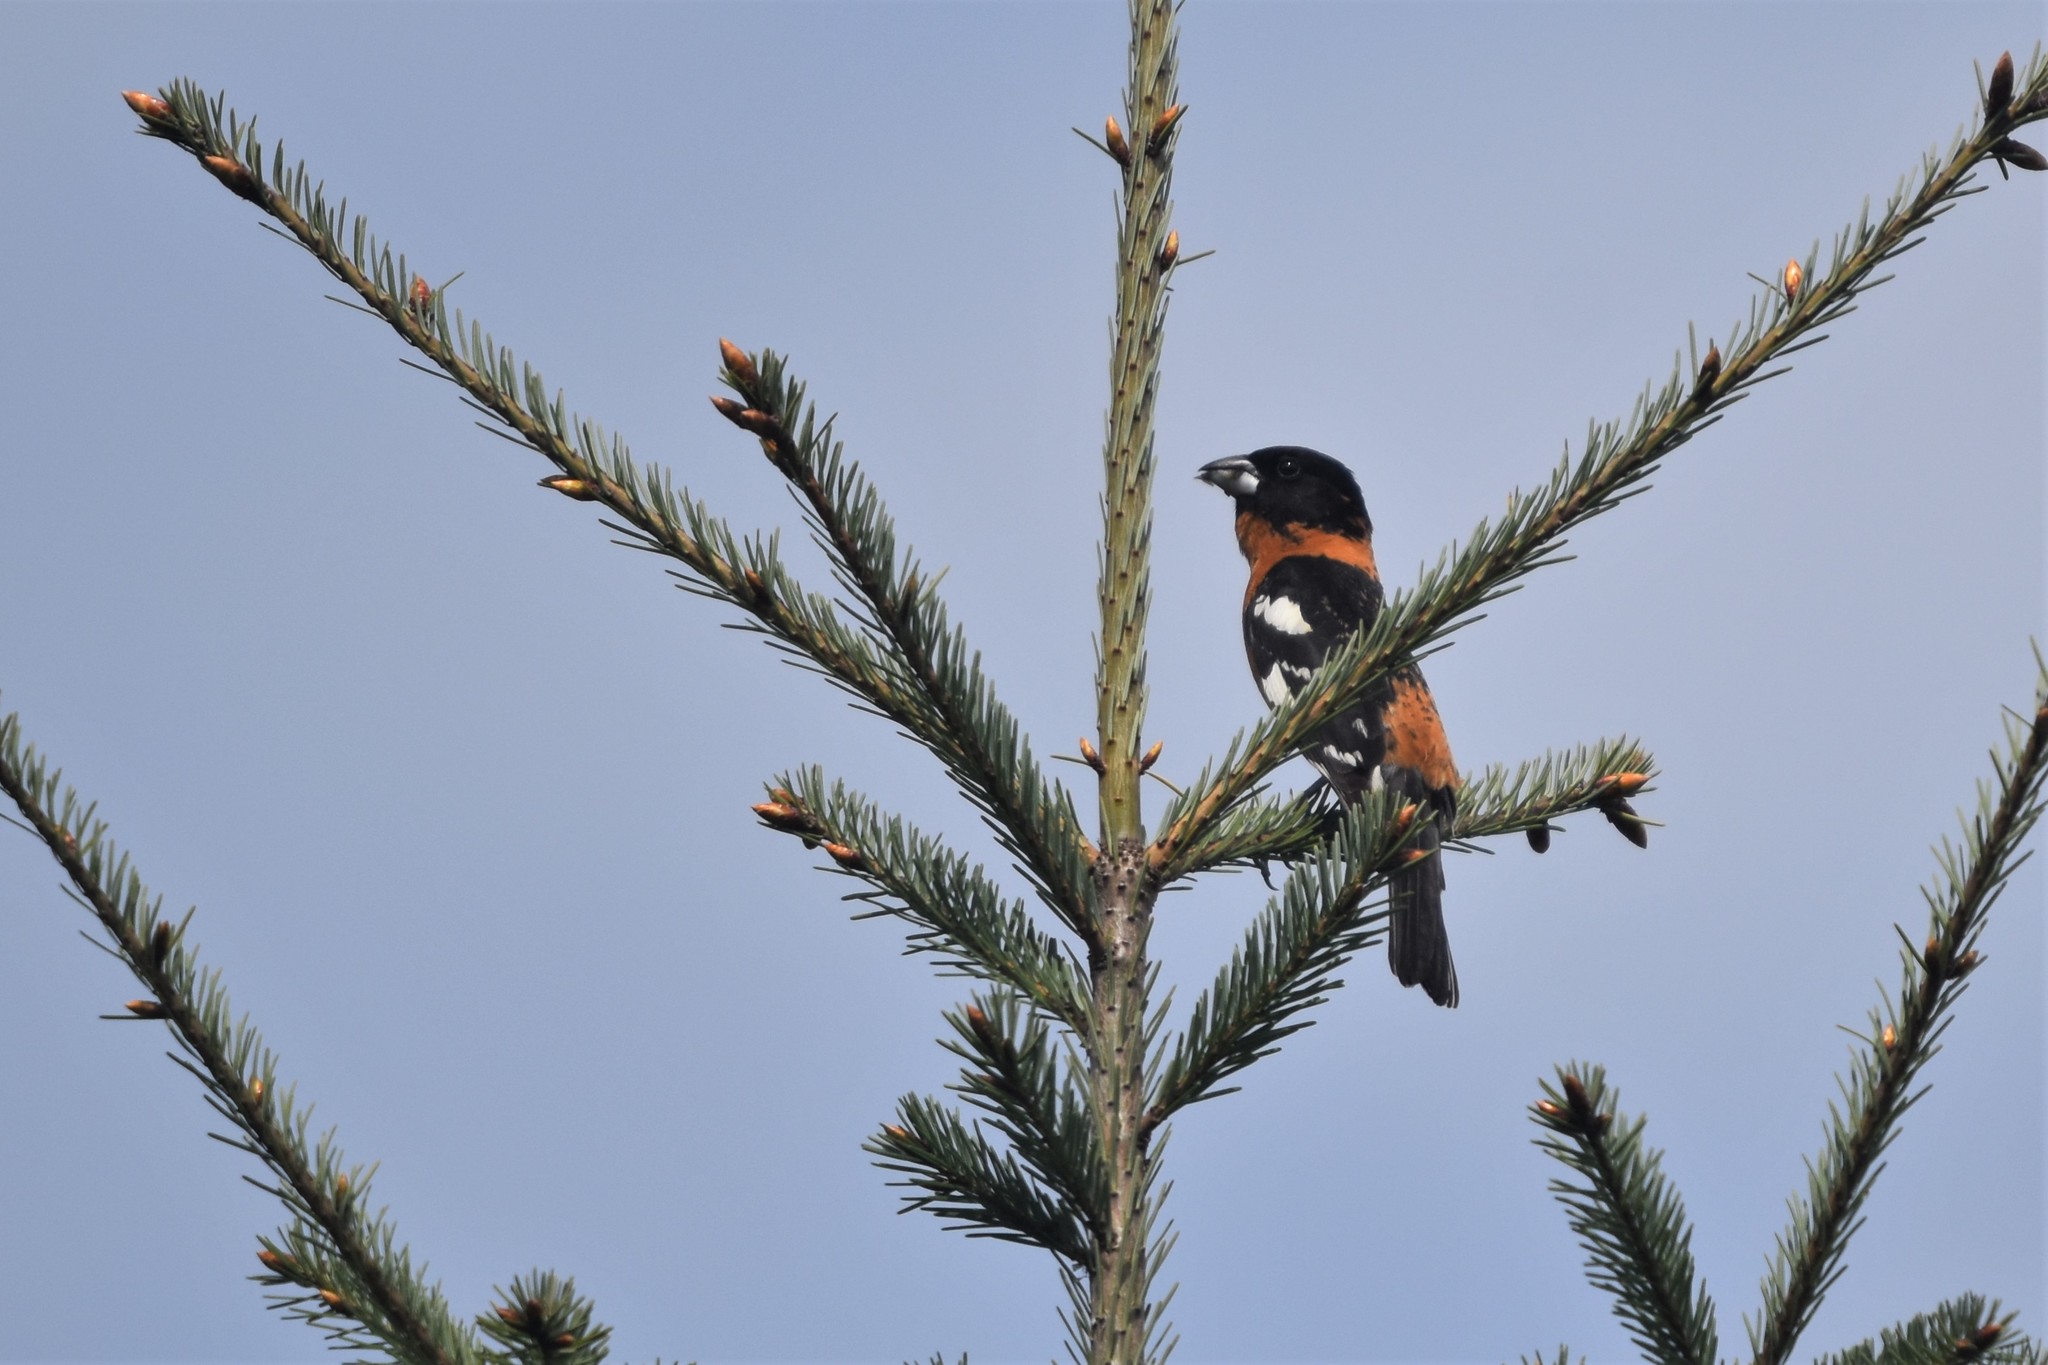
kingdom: Animalia
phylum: Chordata
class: Aves
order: Passeriformes
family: Cardinalidae
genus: Pheucticus
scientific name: Pheucticus melanocephalus
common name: Black-headed grosbeak
